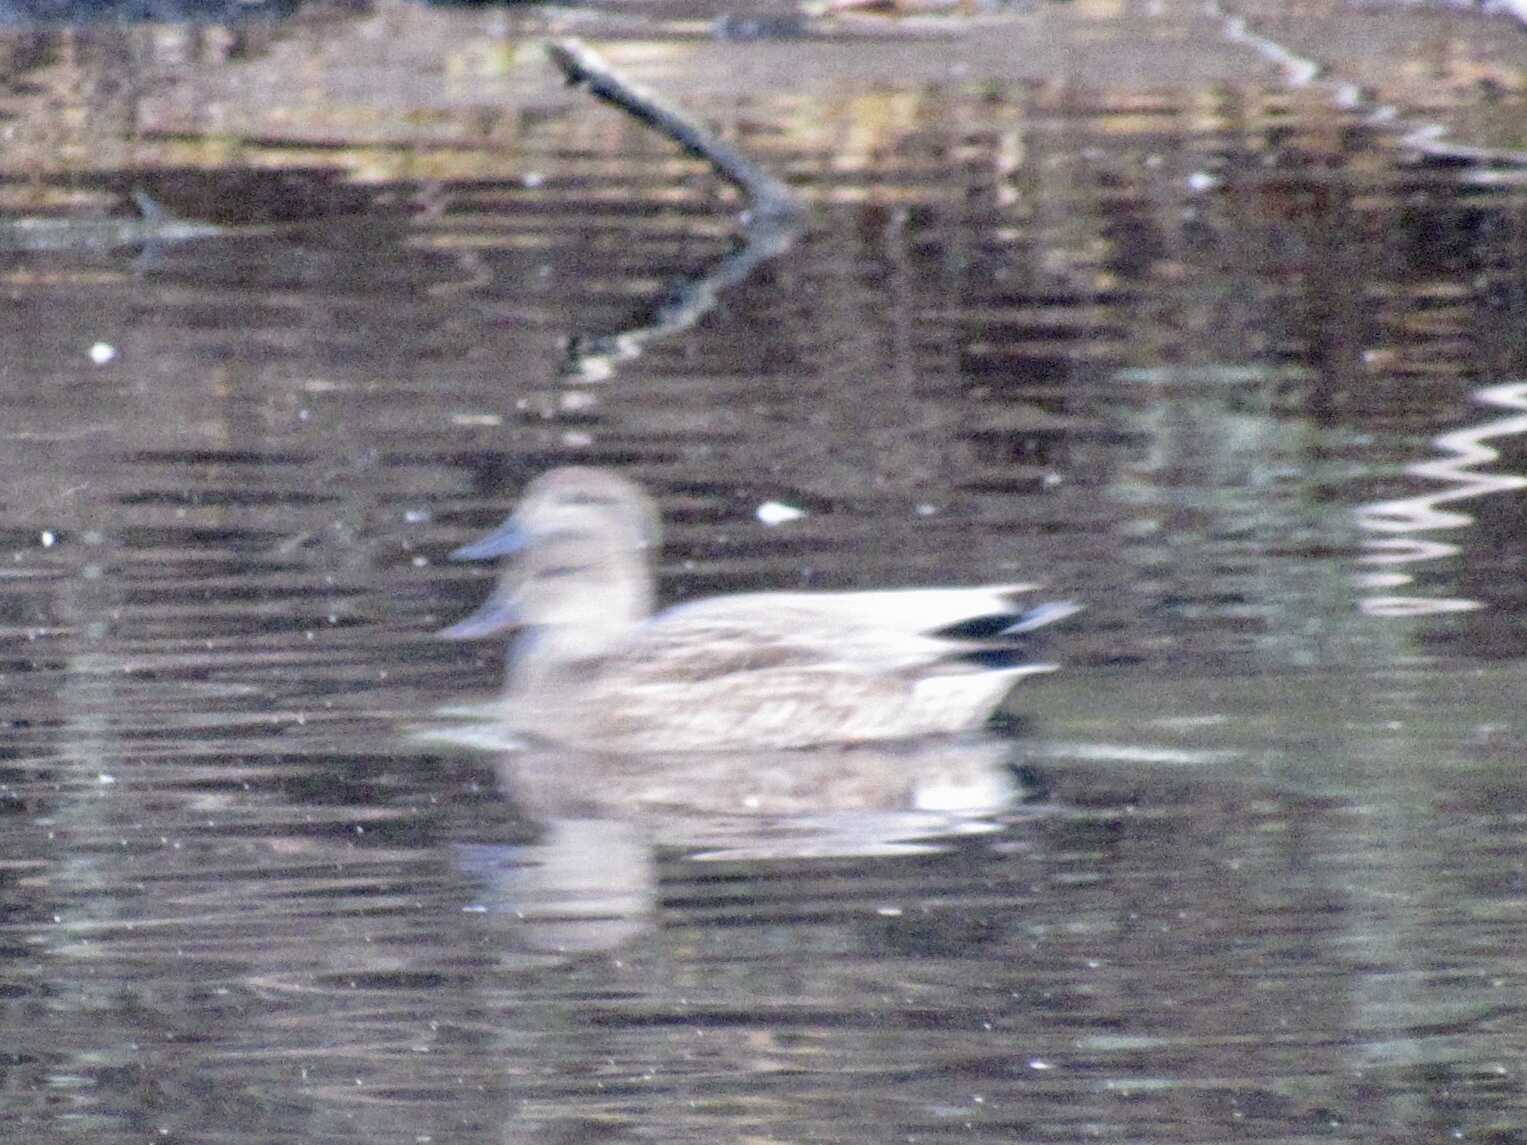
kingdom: Animalia
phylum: Chordata
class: Aves
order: Anseriformes
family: Anatidae
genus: Mareca
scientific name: Mareca strepera
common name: Gadwall
